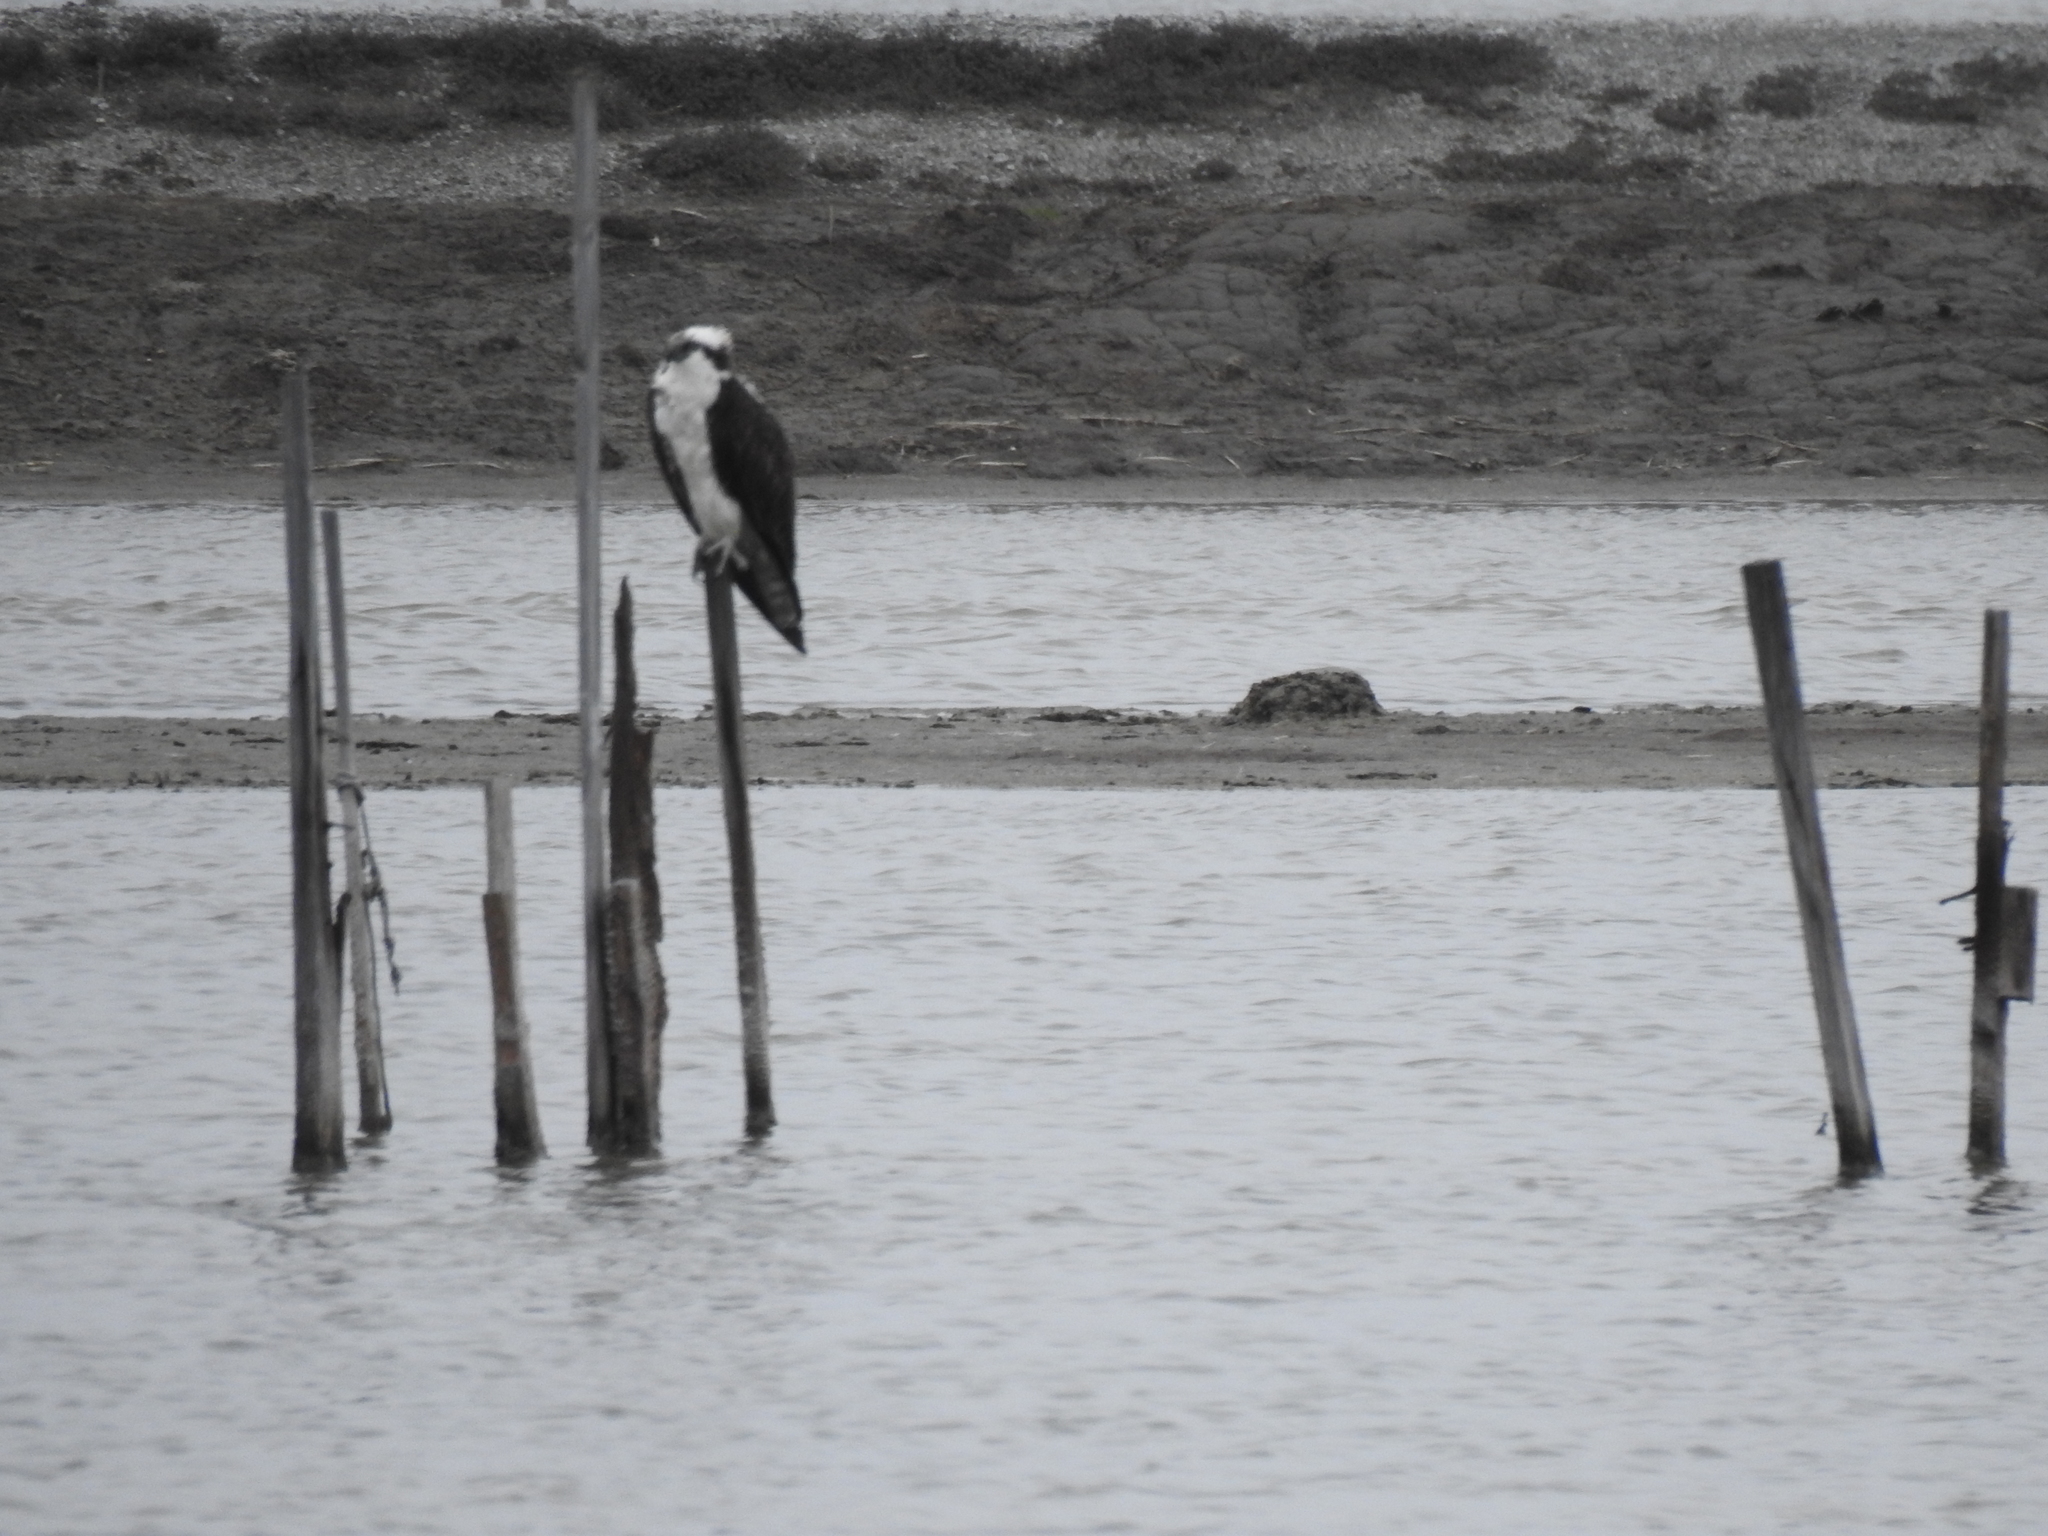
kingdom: Animalia
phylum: Chordata
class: Aves
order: Accipitriformes
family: Pandionidae
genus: Pandion
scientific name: Pandion haliaetus
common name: Osprey
